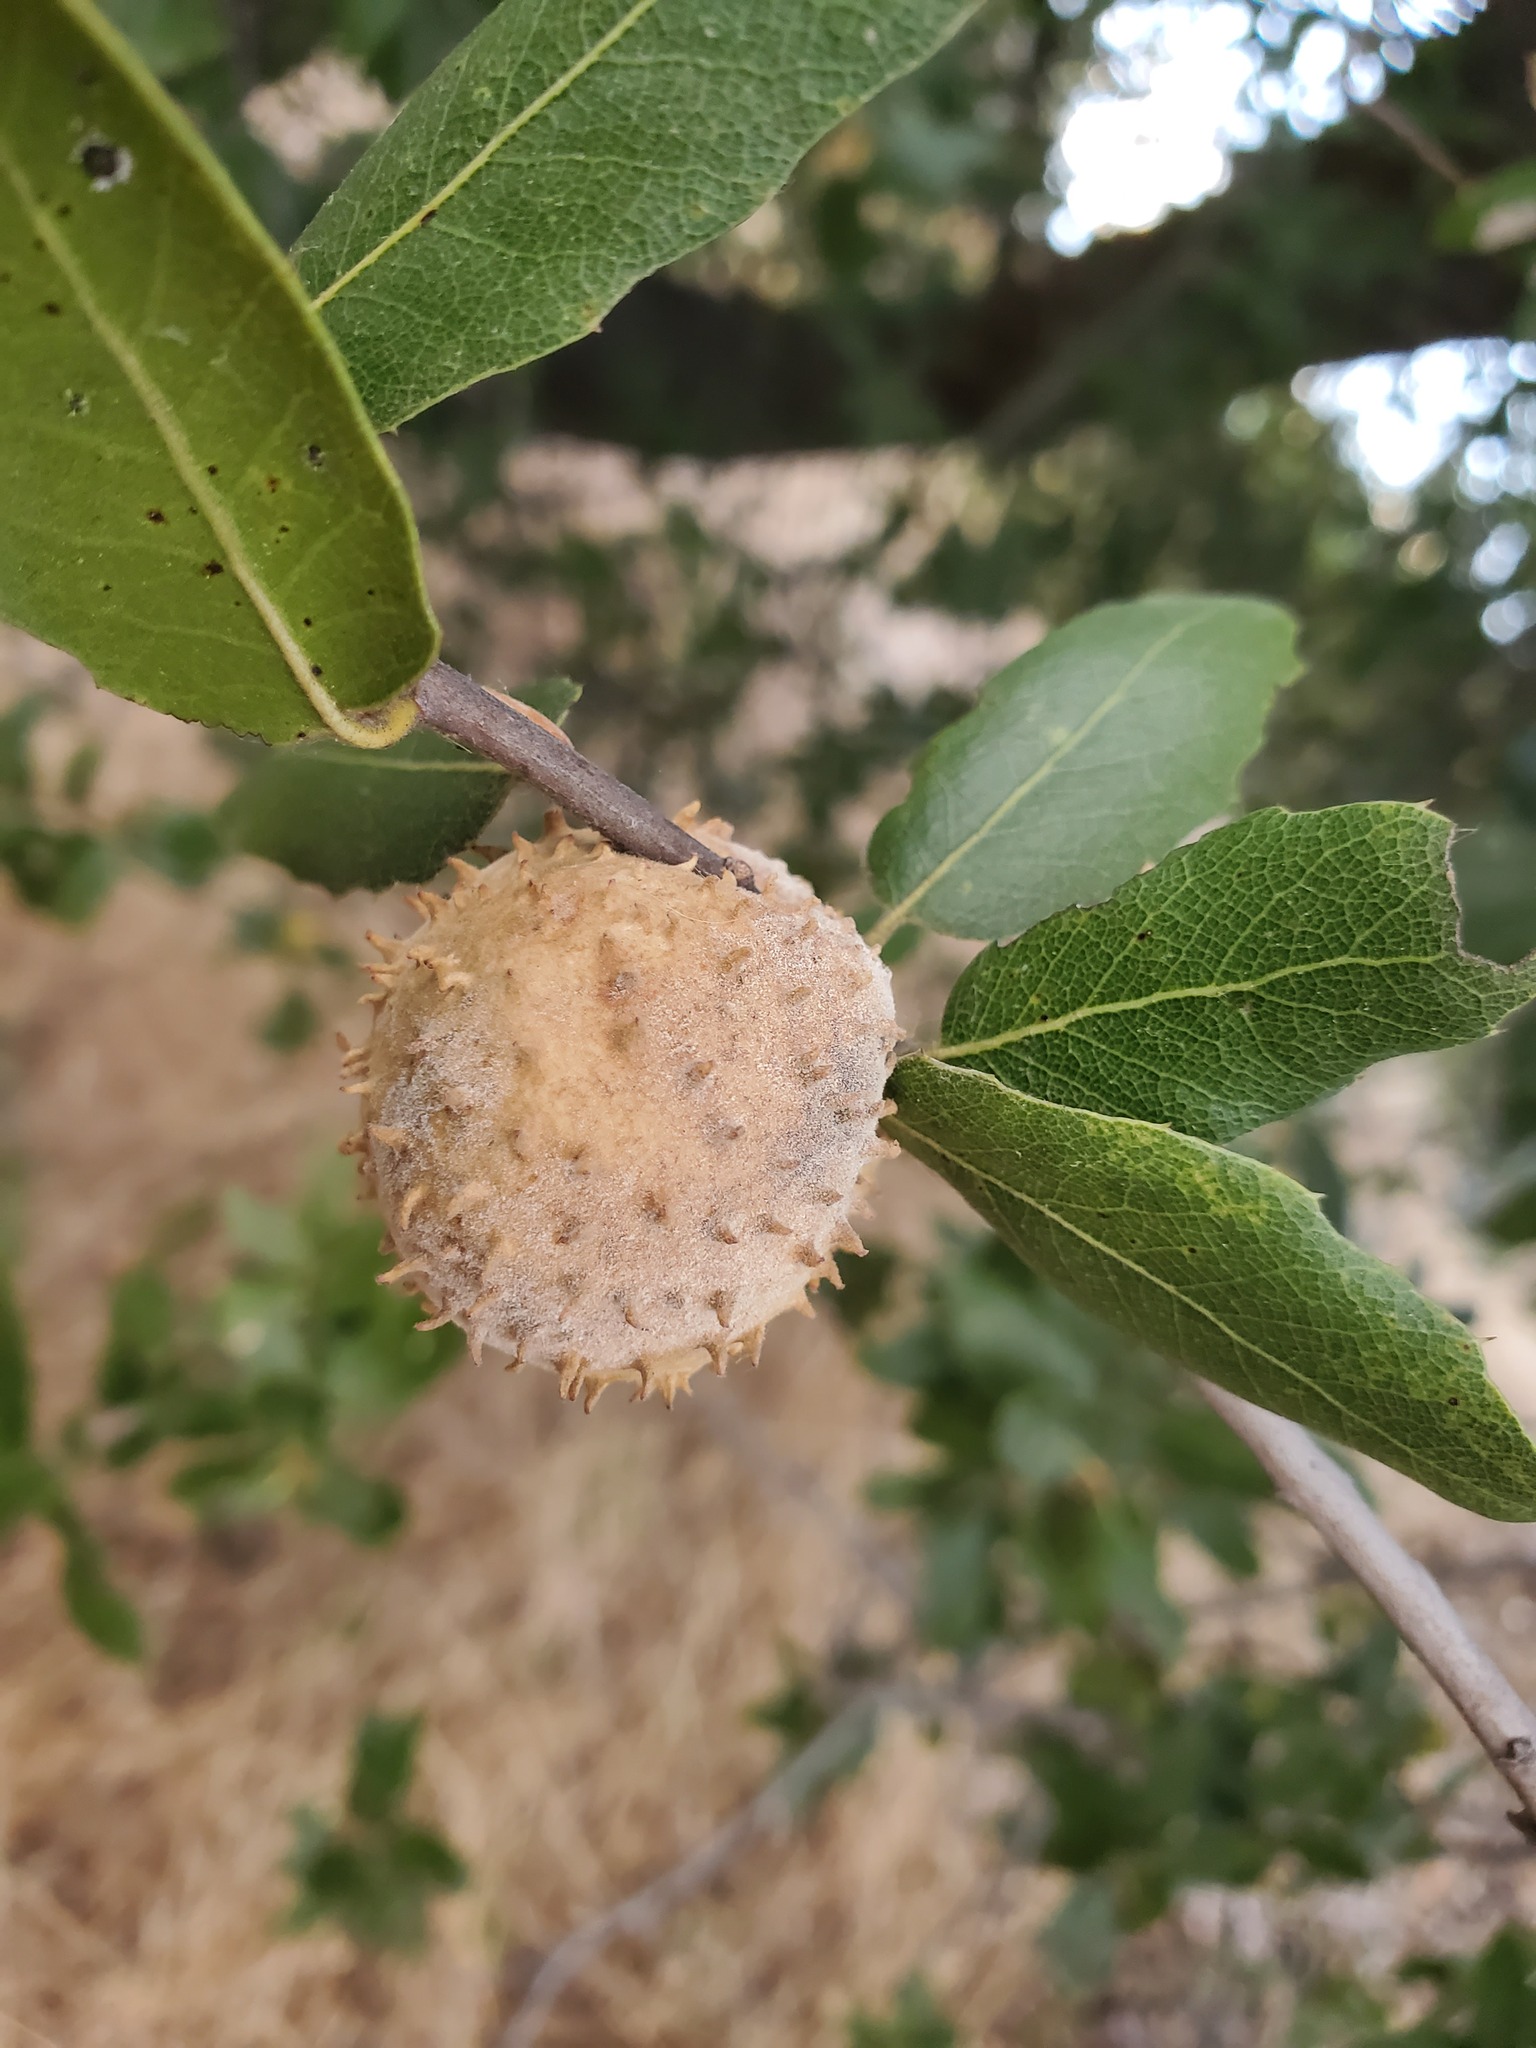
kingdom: Animalia
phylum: Arthropoda
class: Insecta
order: Hymenoptera
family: Cynipidae
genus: Amphibolips
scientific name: Amphibolips quercuspomiformis
